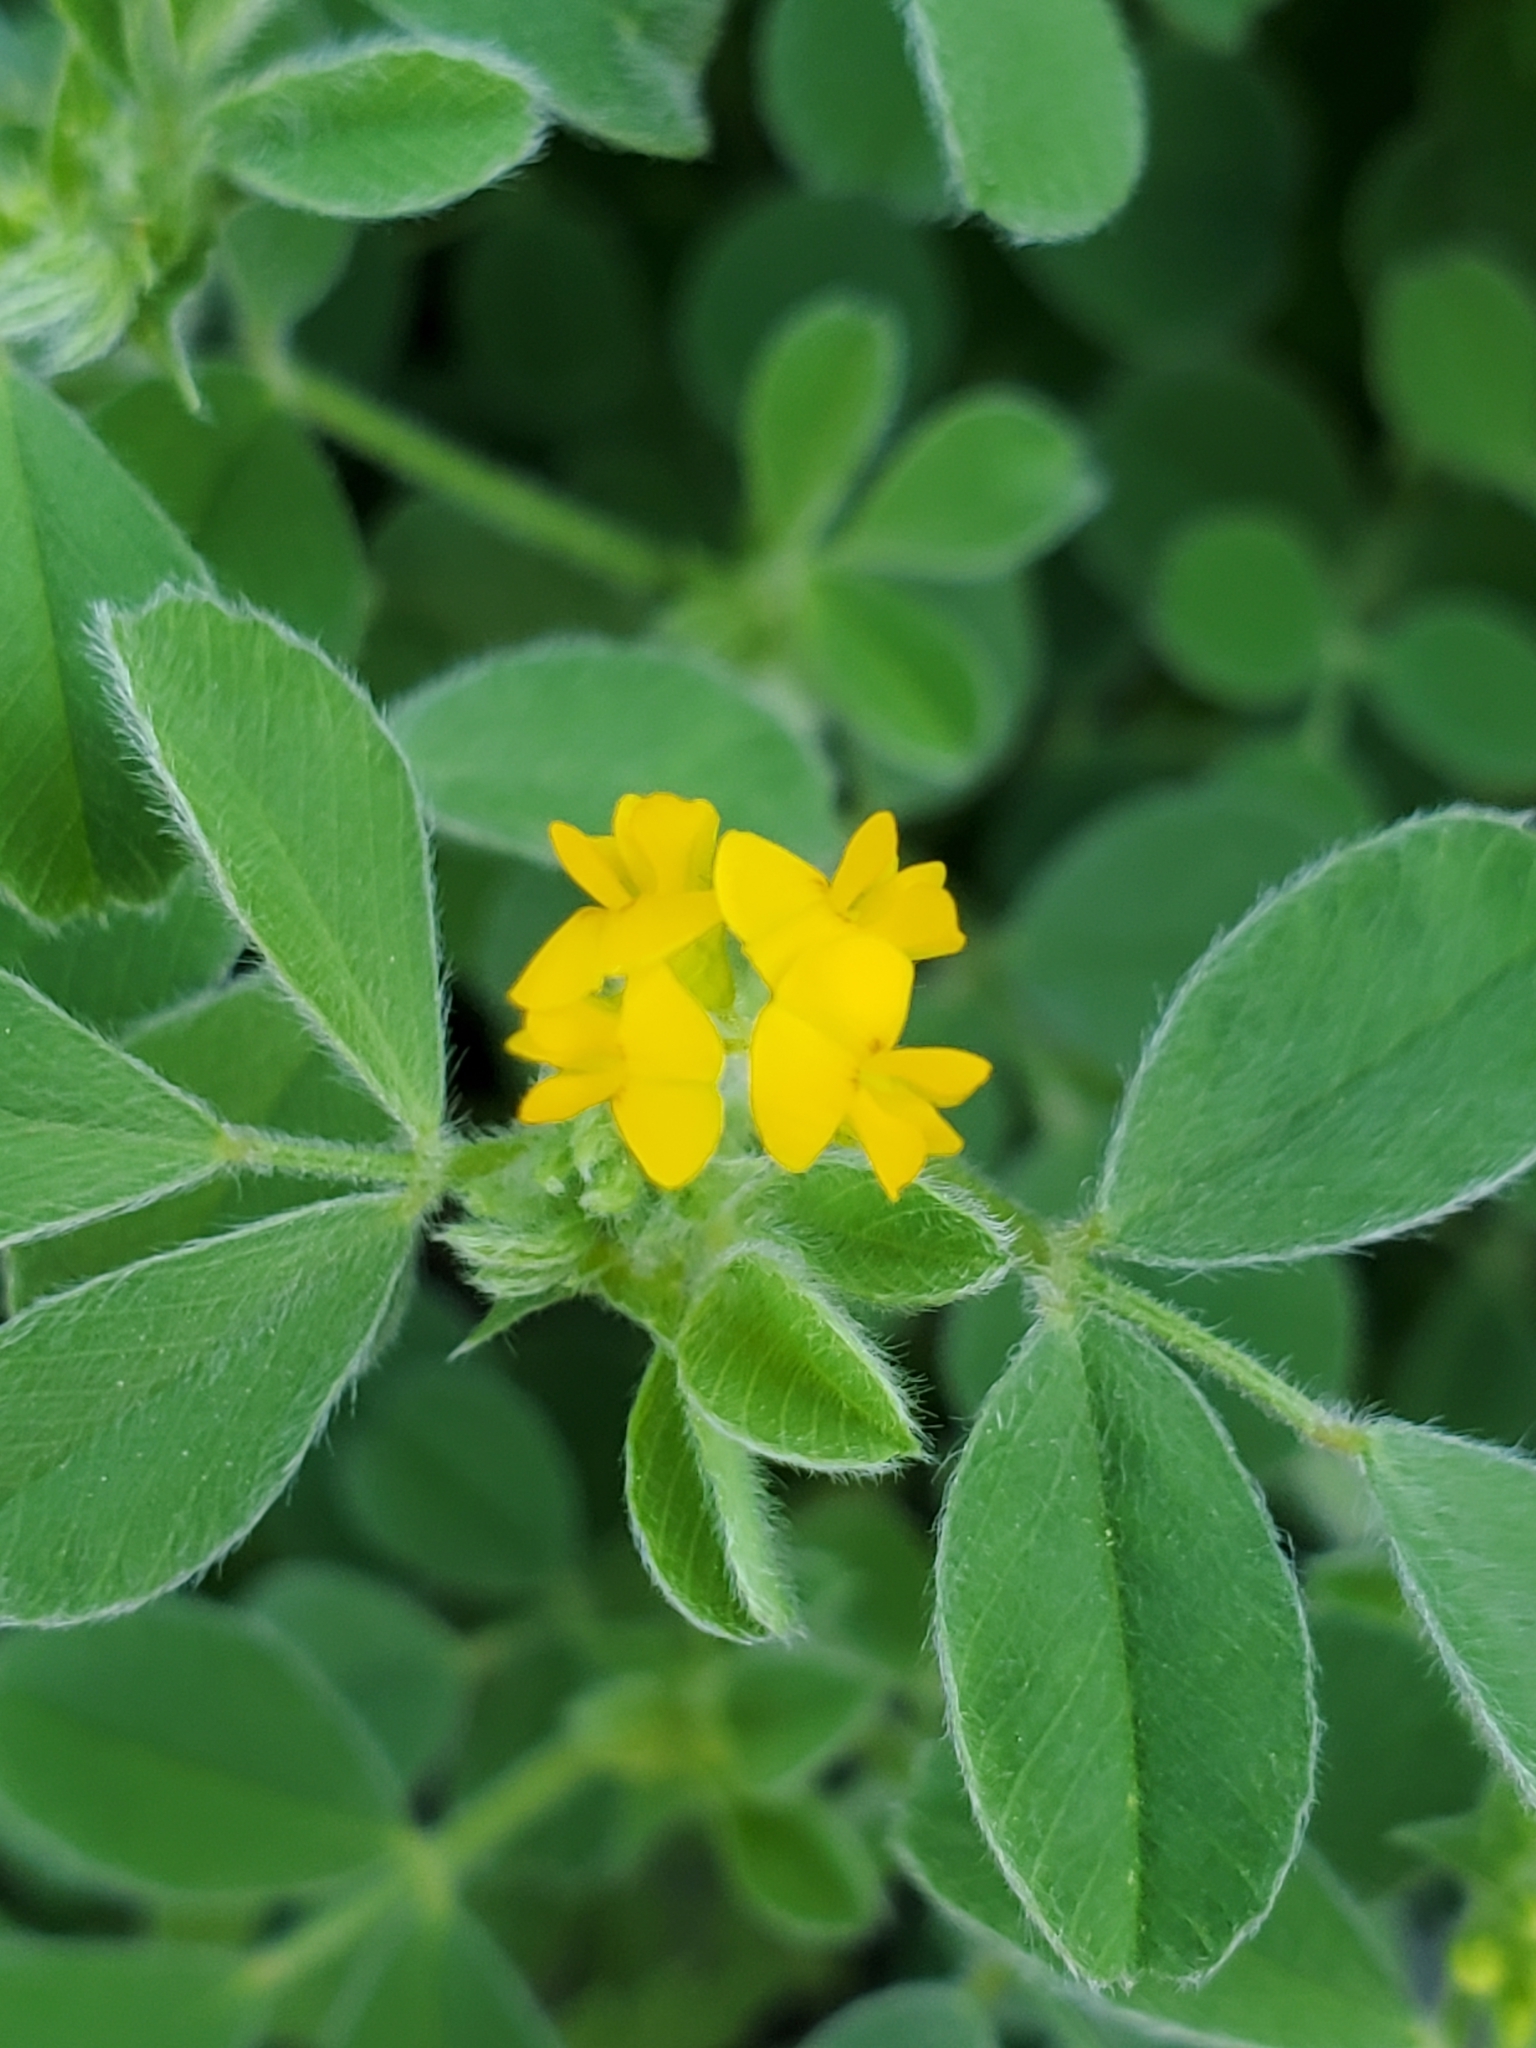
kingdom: Plantae
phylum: Tracheophyta
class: Magnoliopsida
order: Fabales
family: Fabaceae
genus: Medicago
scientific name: Medicago minima
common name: Little bur-clover
